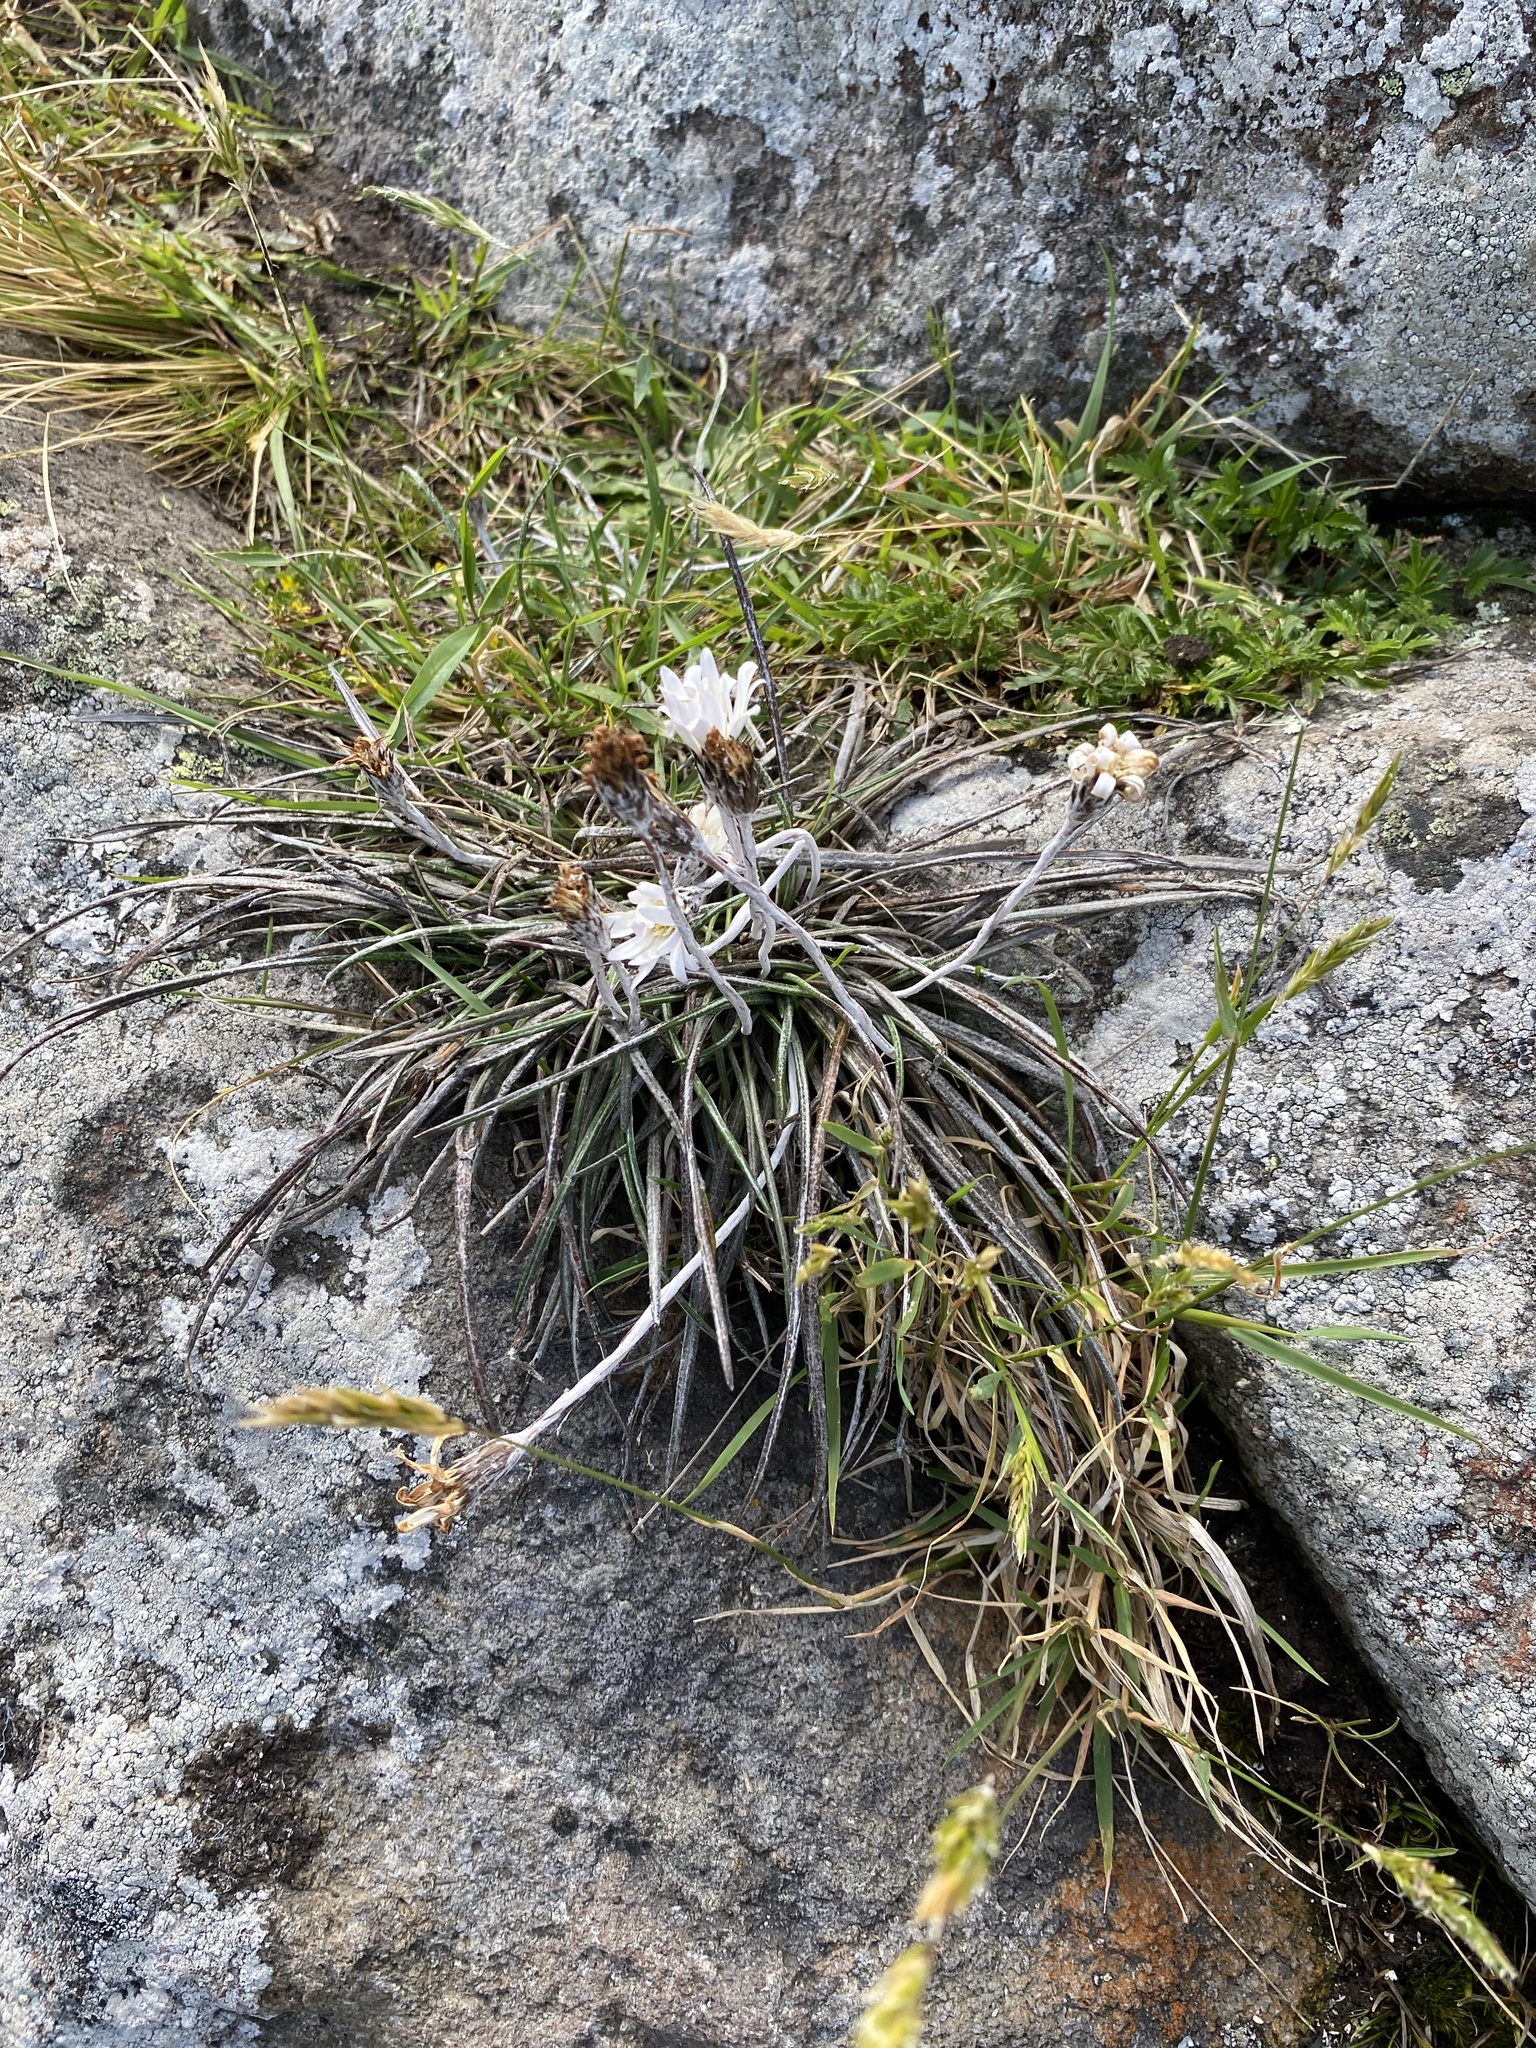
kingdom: Plantae
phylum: Tracheophyta
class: Magnoliopsida
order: Asterales
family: Asteraceae
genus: Celmisia
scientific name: Celmisia gracilenta
